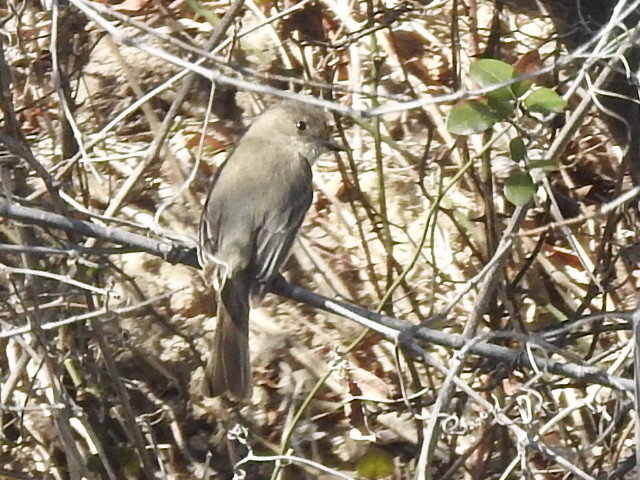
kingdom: Animalia
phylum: Chordata
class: Aves
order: Passeriformes
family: Tyrannidae
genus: Sayornis
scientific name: Sayornis phoebe
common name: Eastern phoebe
